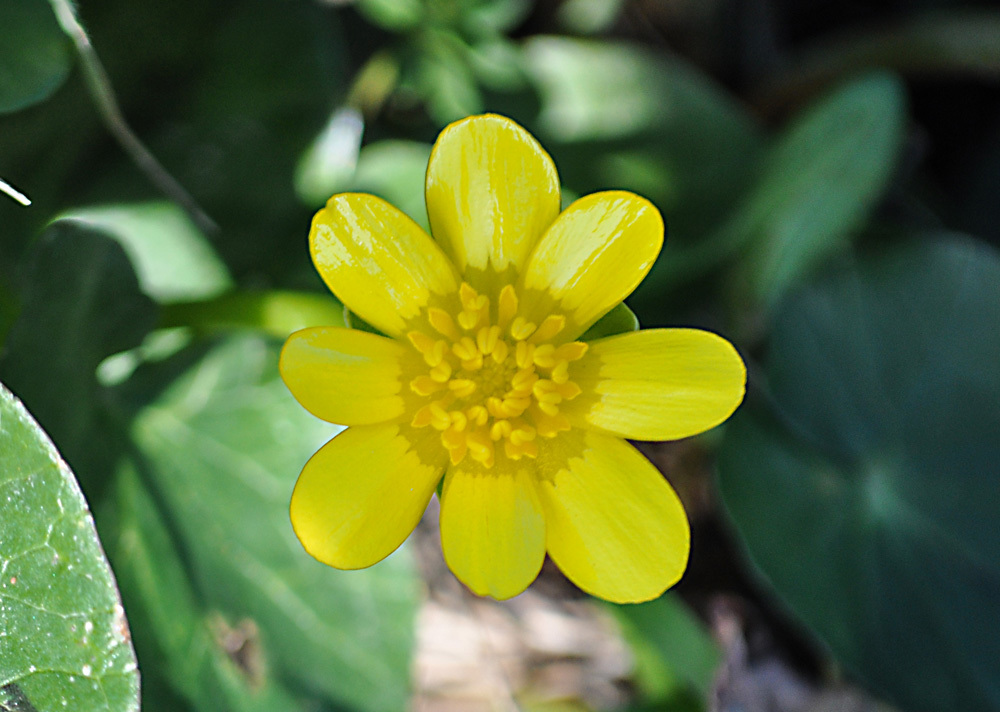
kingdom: Plantae
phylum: Tracheophyta
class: Magnoliopsida
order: Ranunculales
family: Ranunculaceae
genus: Ficaria
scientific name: Ficaria verna
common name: Lesser celandine
